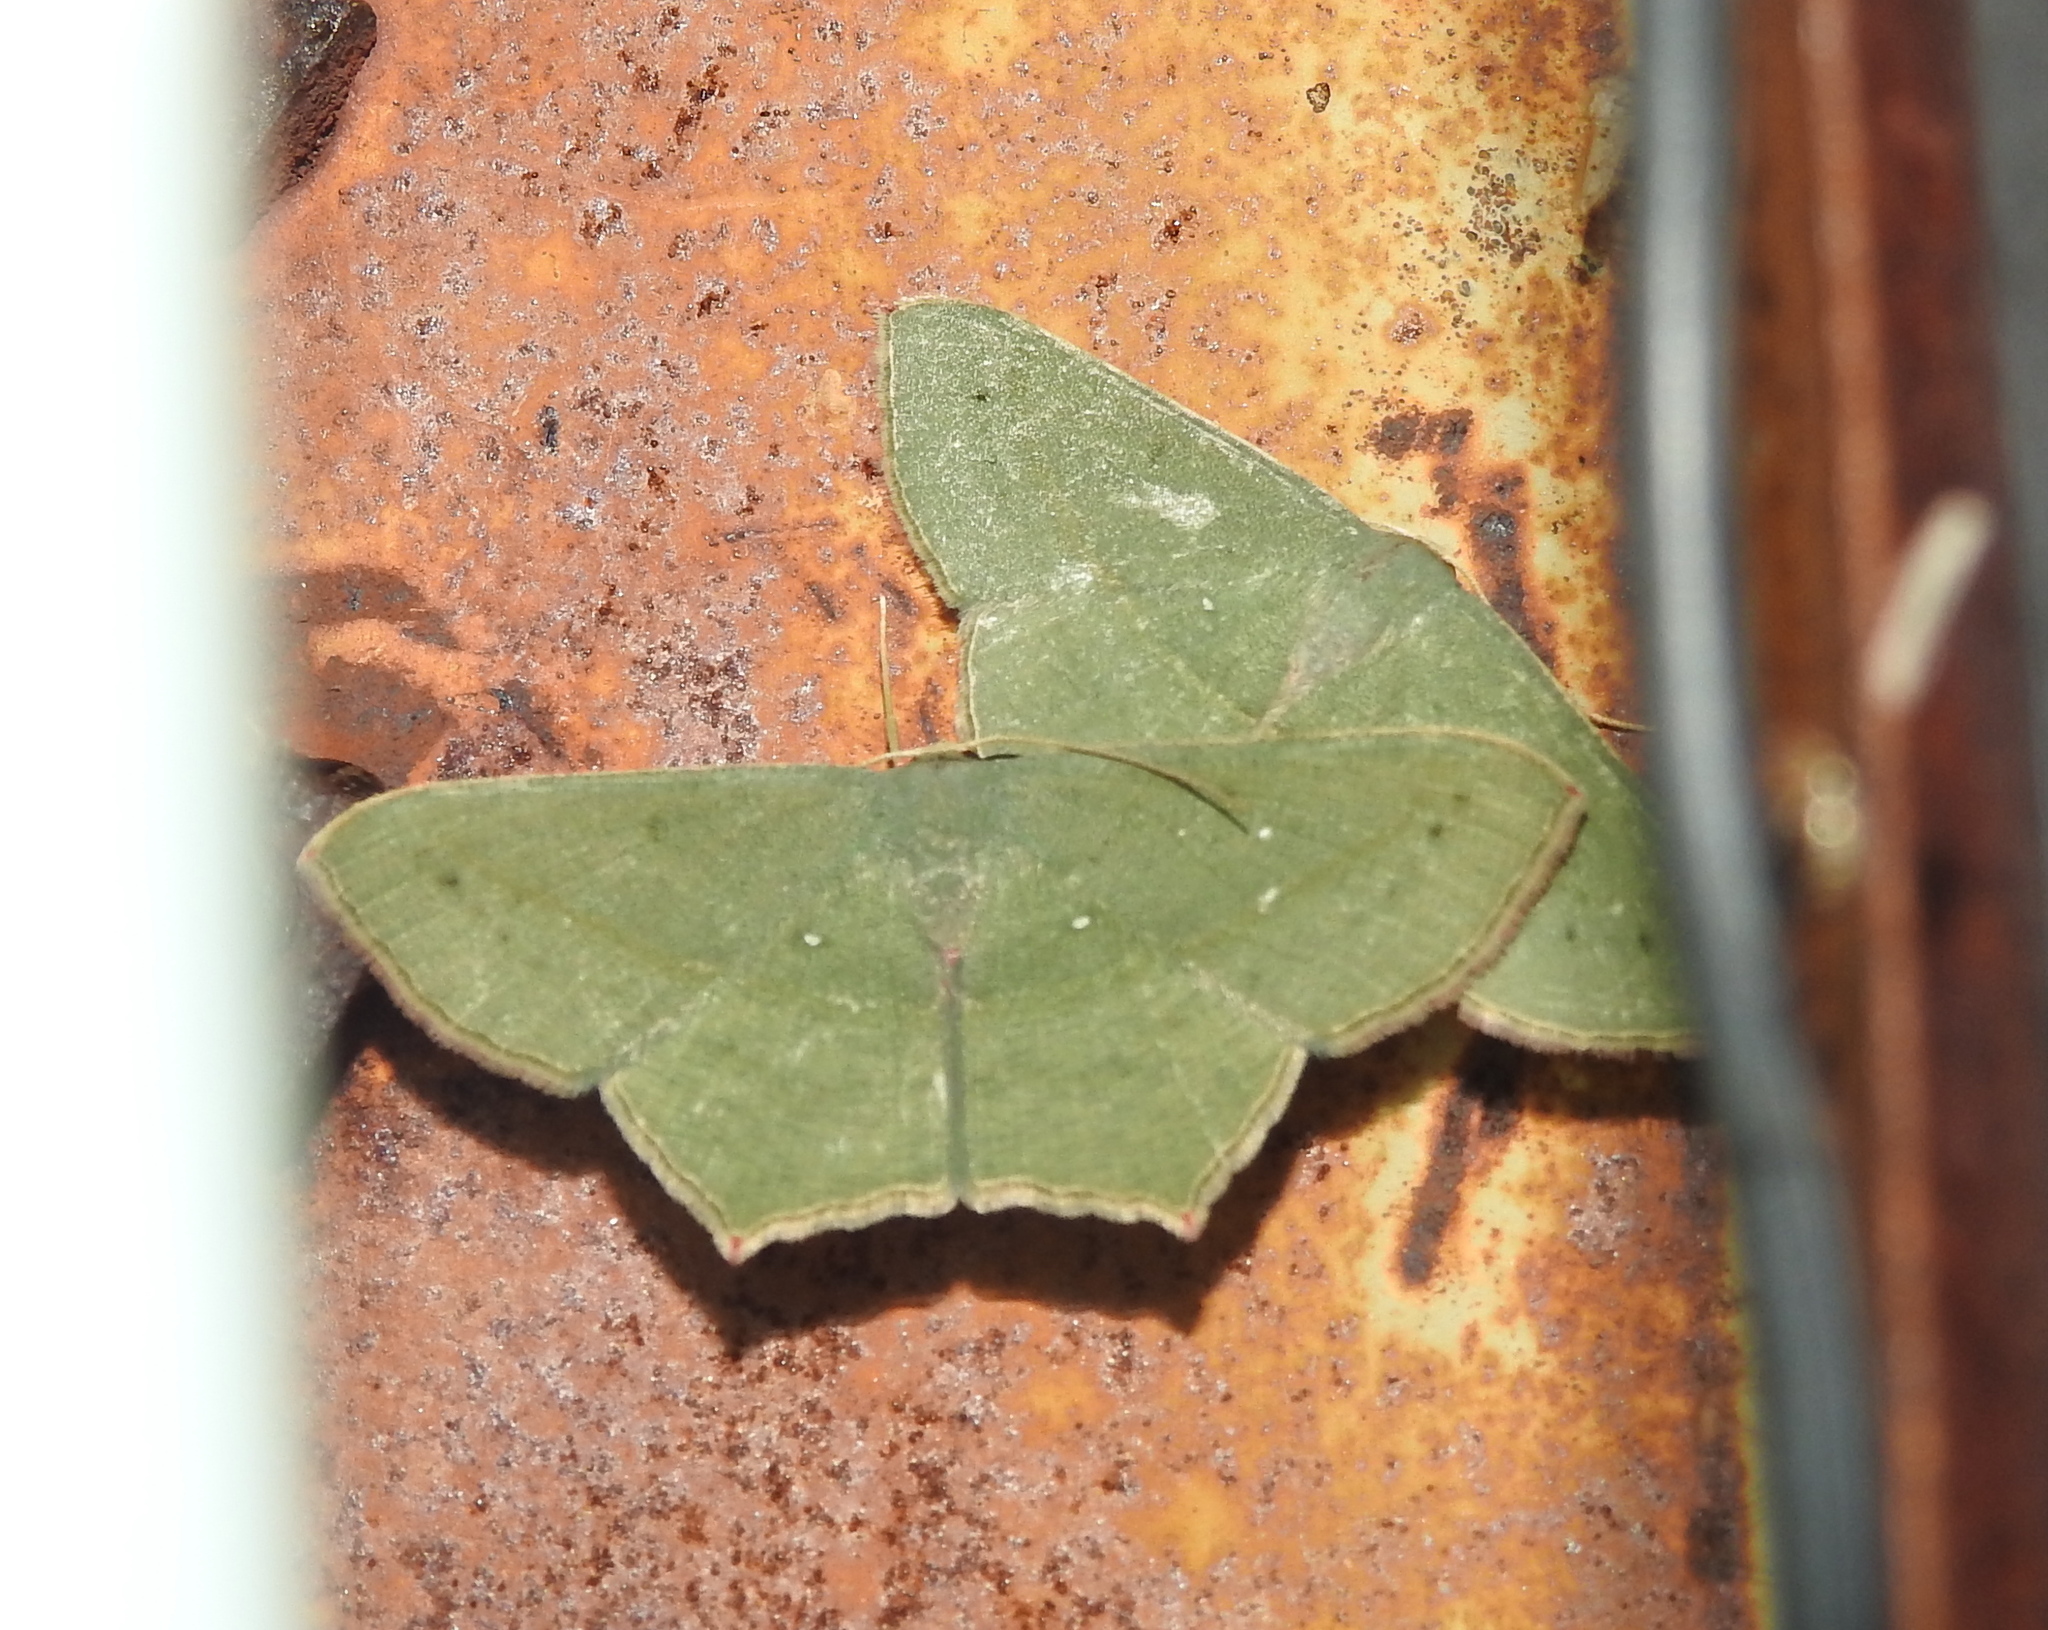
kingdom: Animalia
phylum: Arthropoda
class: Insecta
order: Lepidoptera
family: Geometridae
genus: Traminda
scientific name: Traminda mundissima
